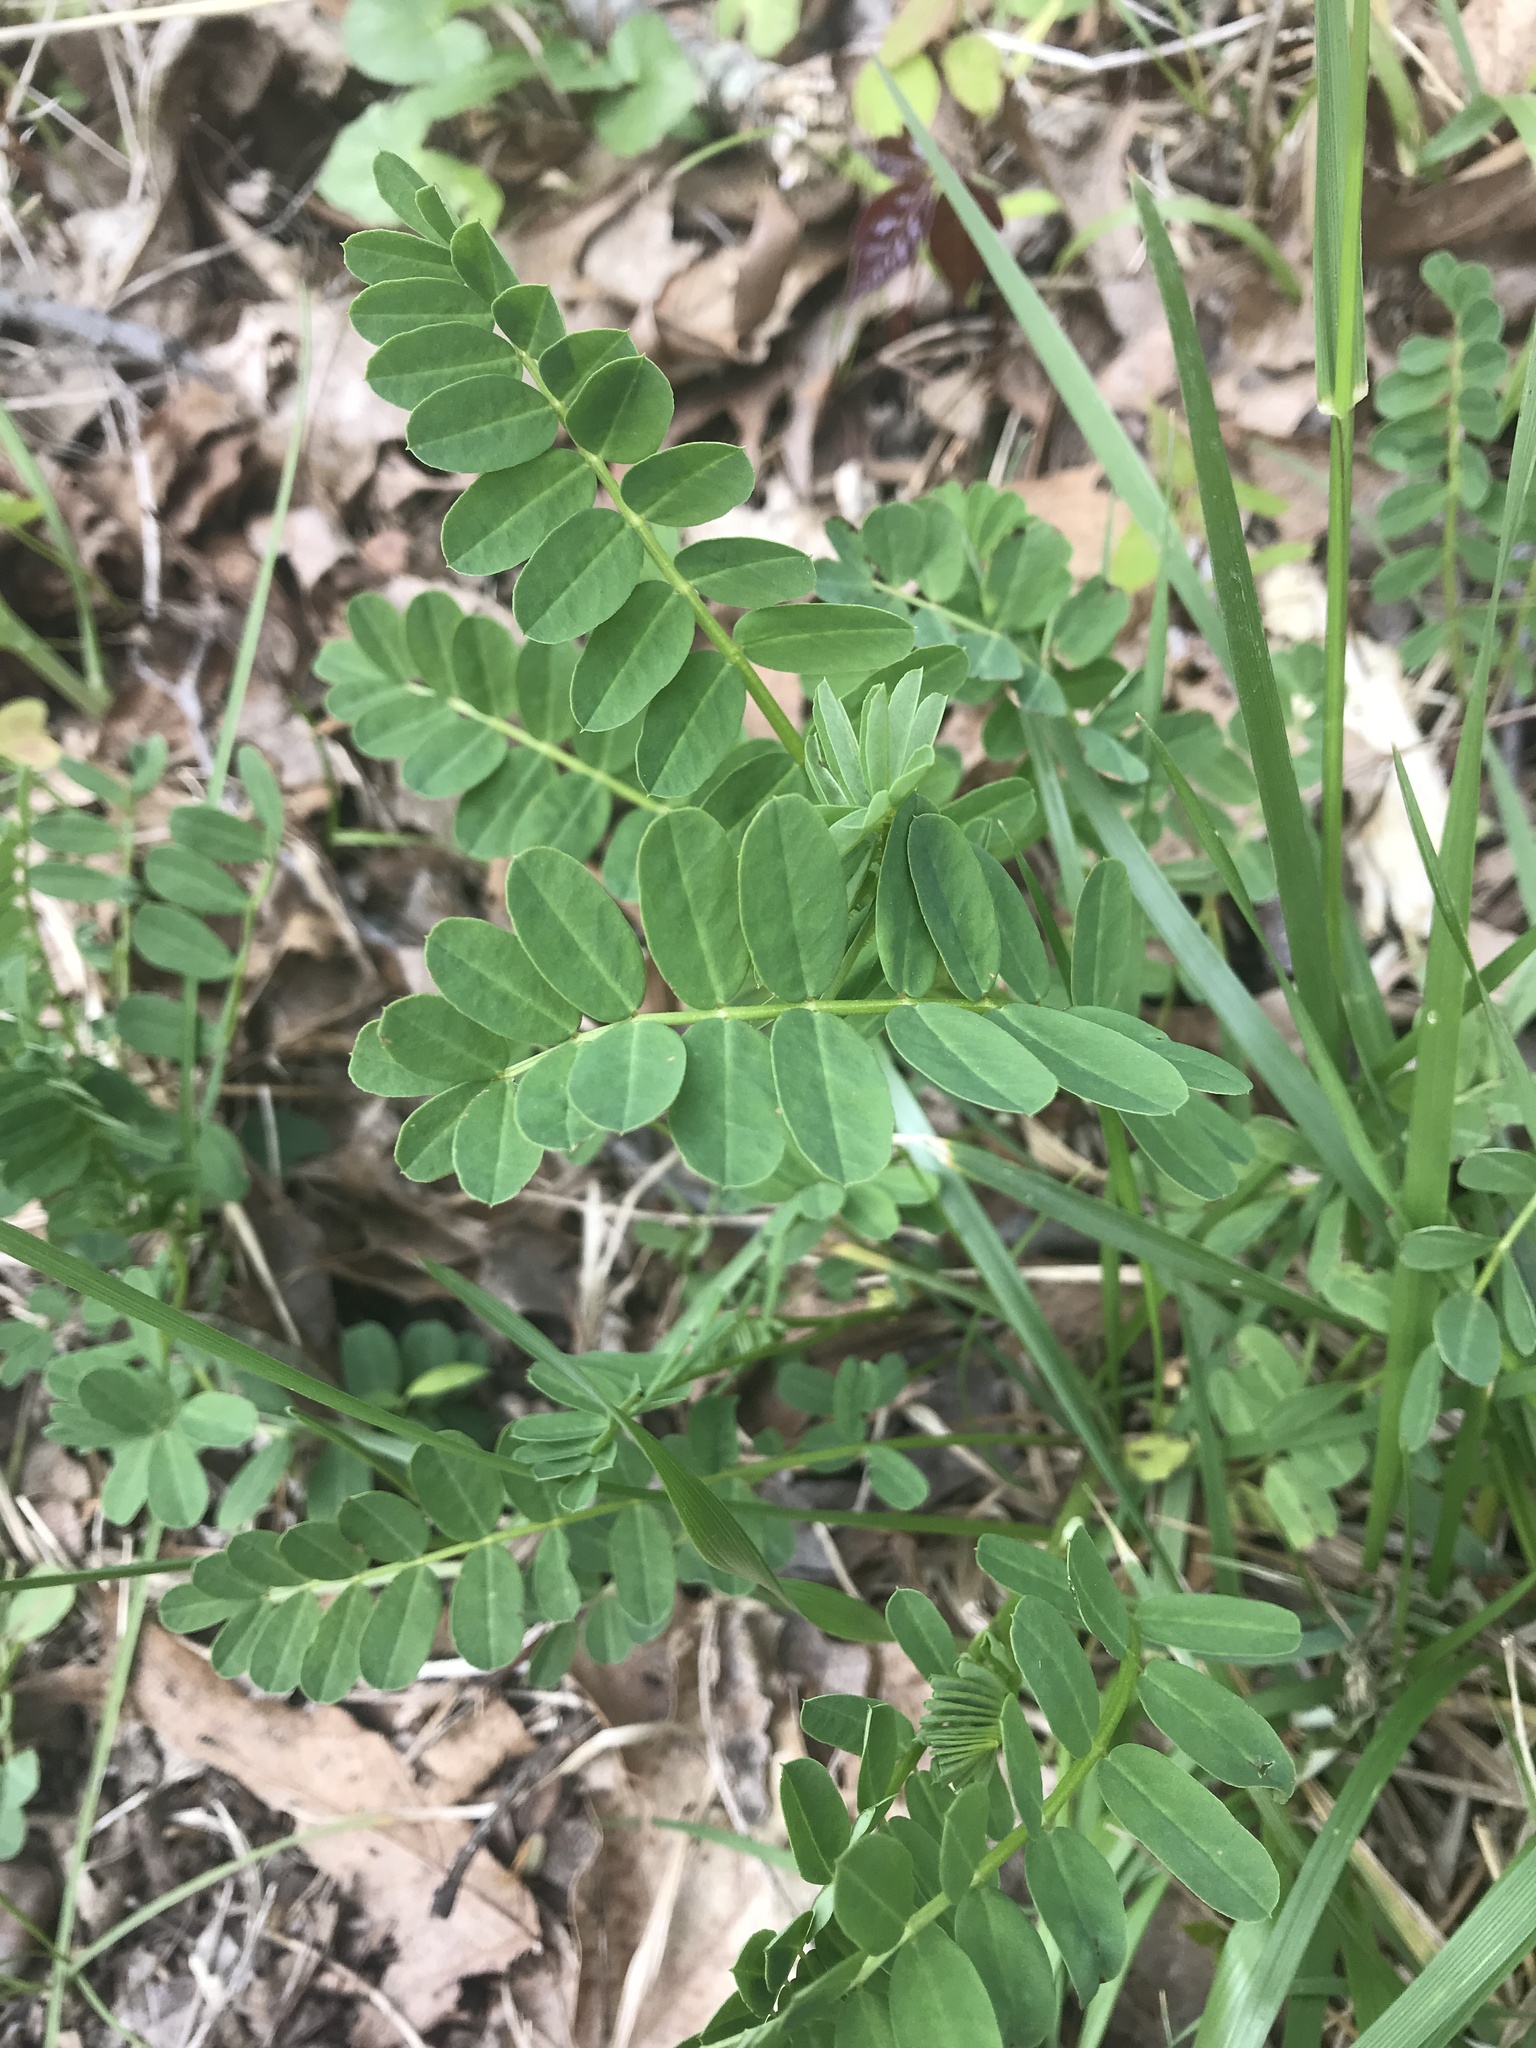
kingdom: Plantae
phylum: Tracheophyta
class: Magnoliopsida
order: Fabales
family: Fabaceae
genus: Coronilla
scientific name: Coronilla varia
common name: Crownvetch
